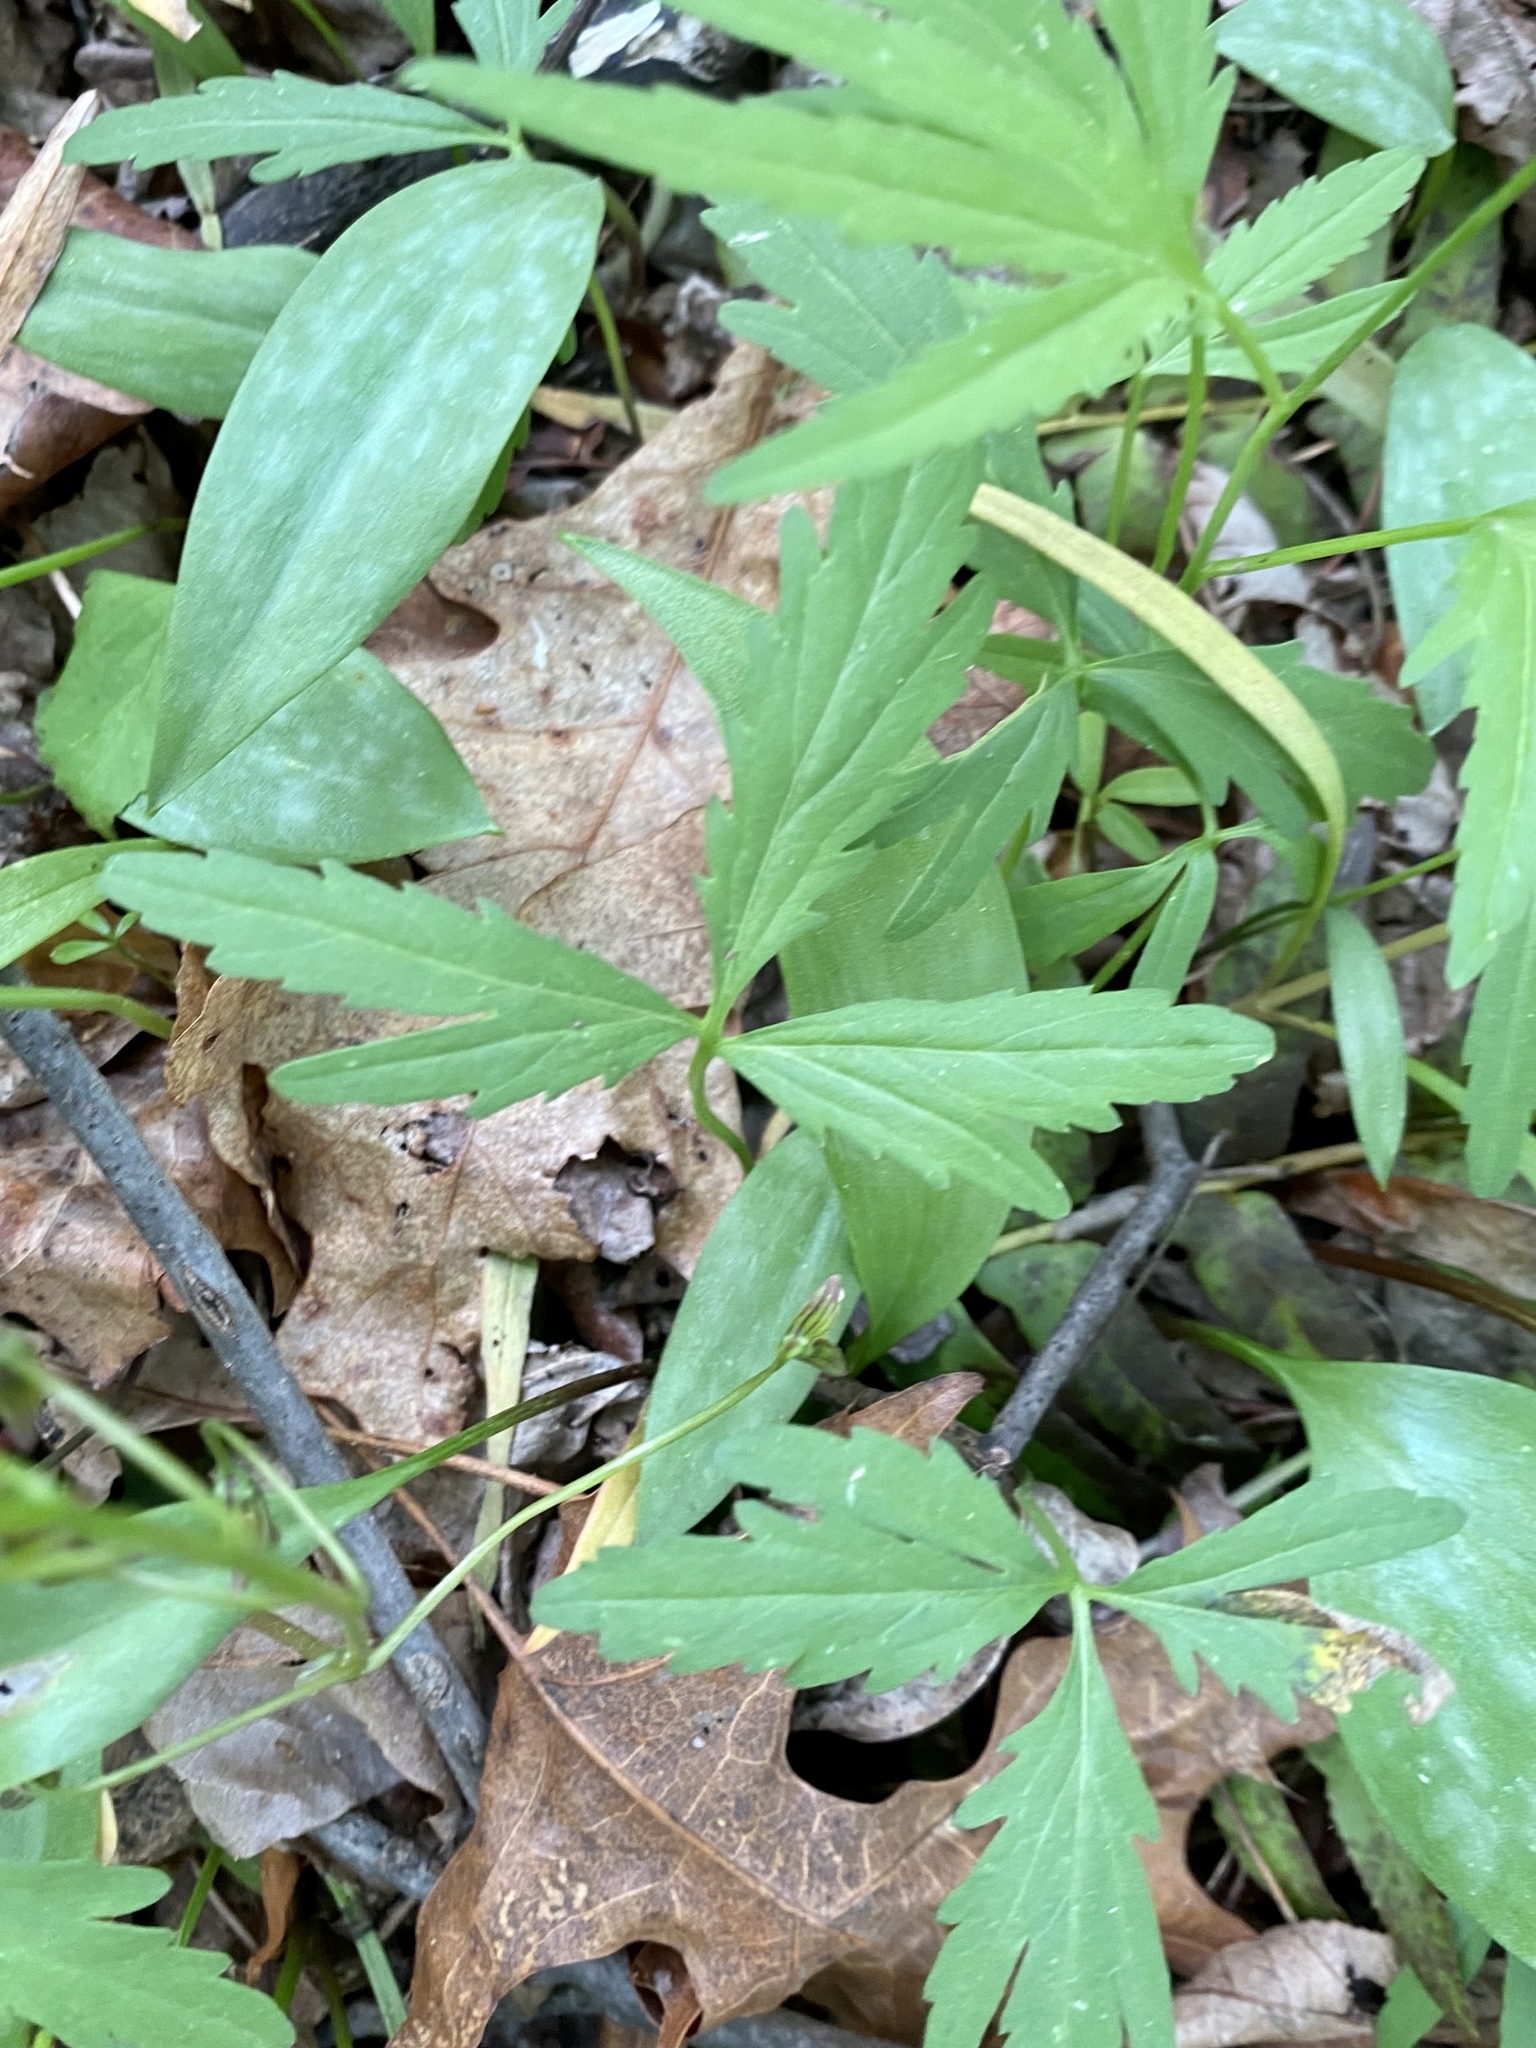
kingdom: Plantae
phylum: Tracheophyta
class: Magnoliopsida
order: Brassicales
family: Brassicaceae
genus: Cardamine
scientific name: Cardamine concatenata
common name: Cut-leaf toothcup
